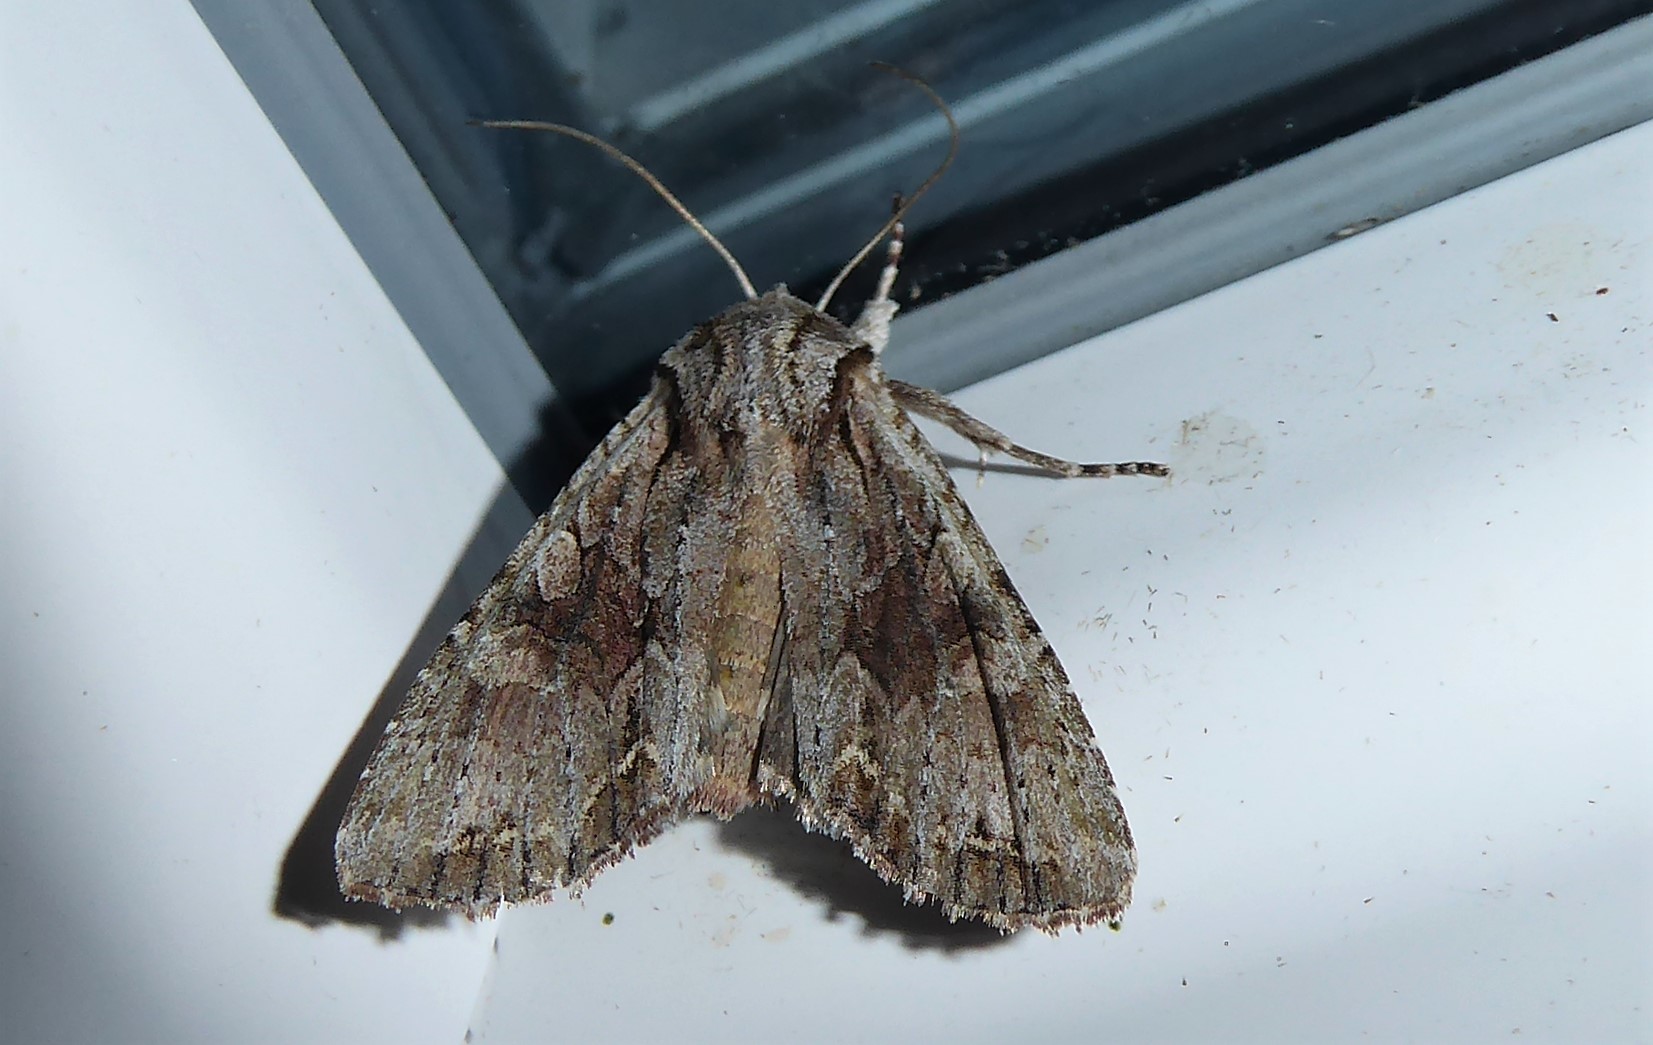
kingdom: Animalia
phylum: Arthropoda
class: Insecta
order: Lepidoptera
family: Noctuidae
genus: Ichneutica
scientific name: Ichneutica mutans
